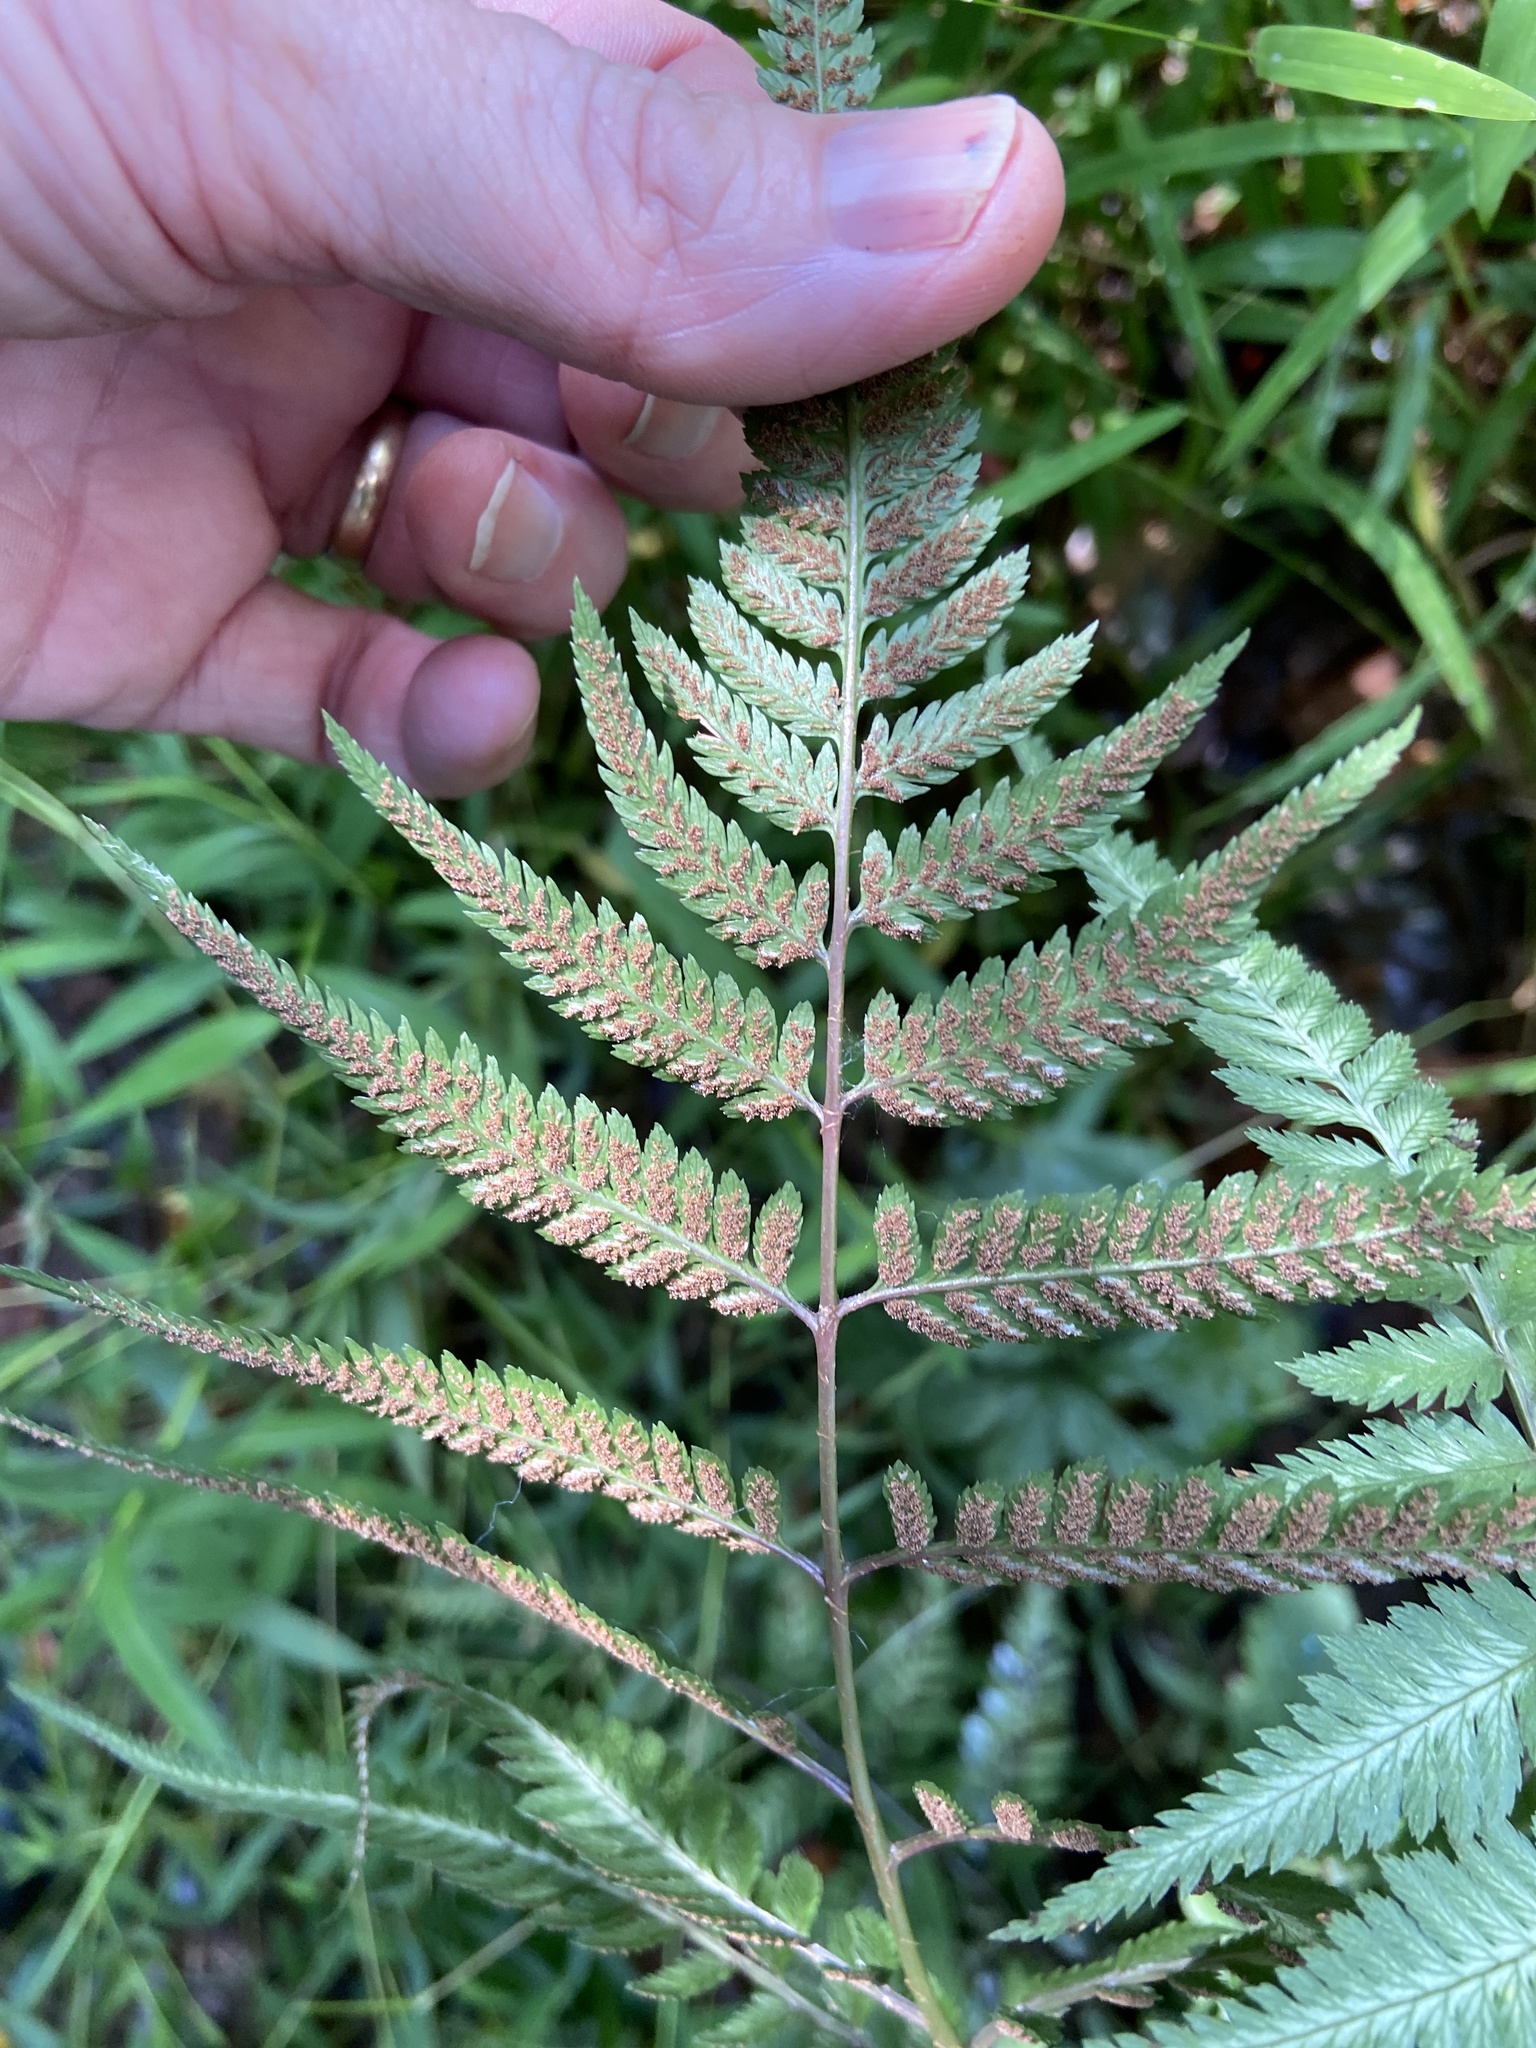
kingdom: Plantae
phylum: Tracheophyta
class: Polypodiopsida
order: Polypodiales
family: Athyriaceae
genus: Anisocampium
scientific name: Anisocampium niponicum
